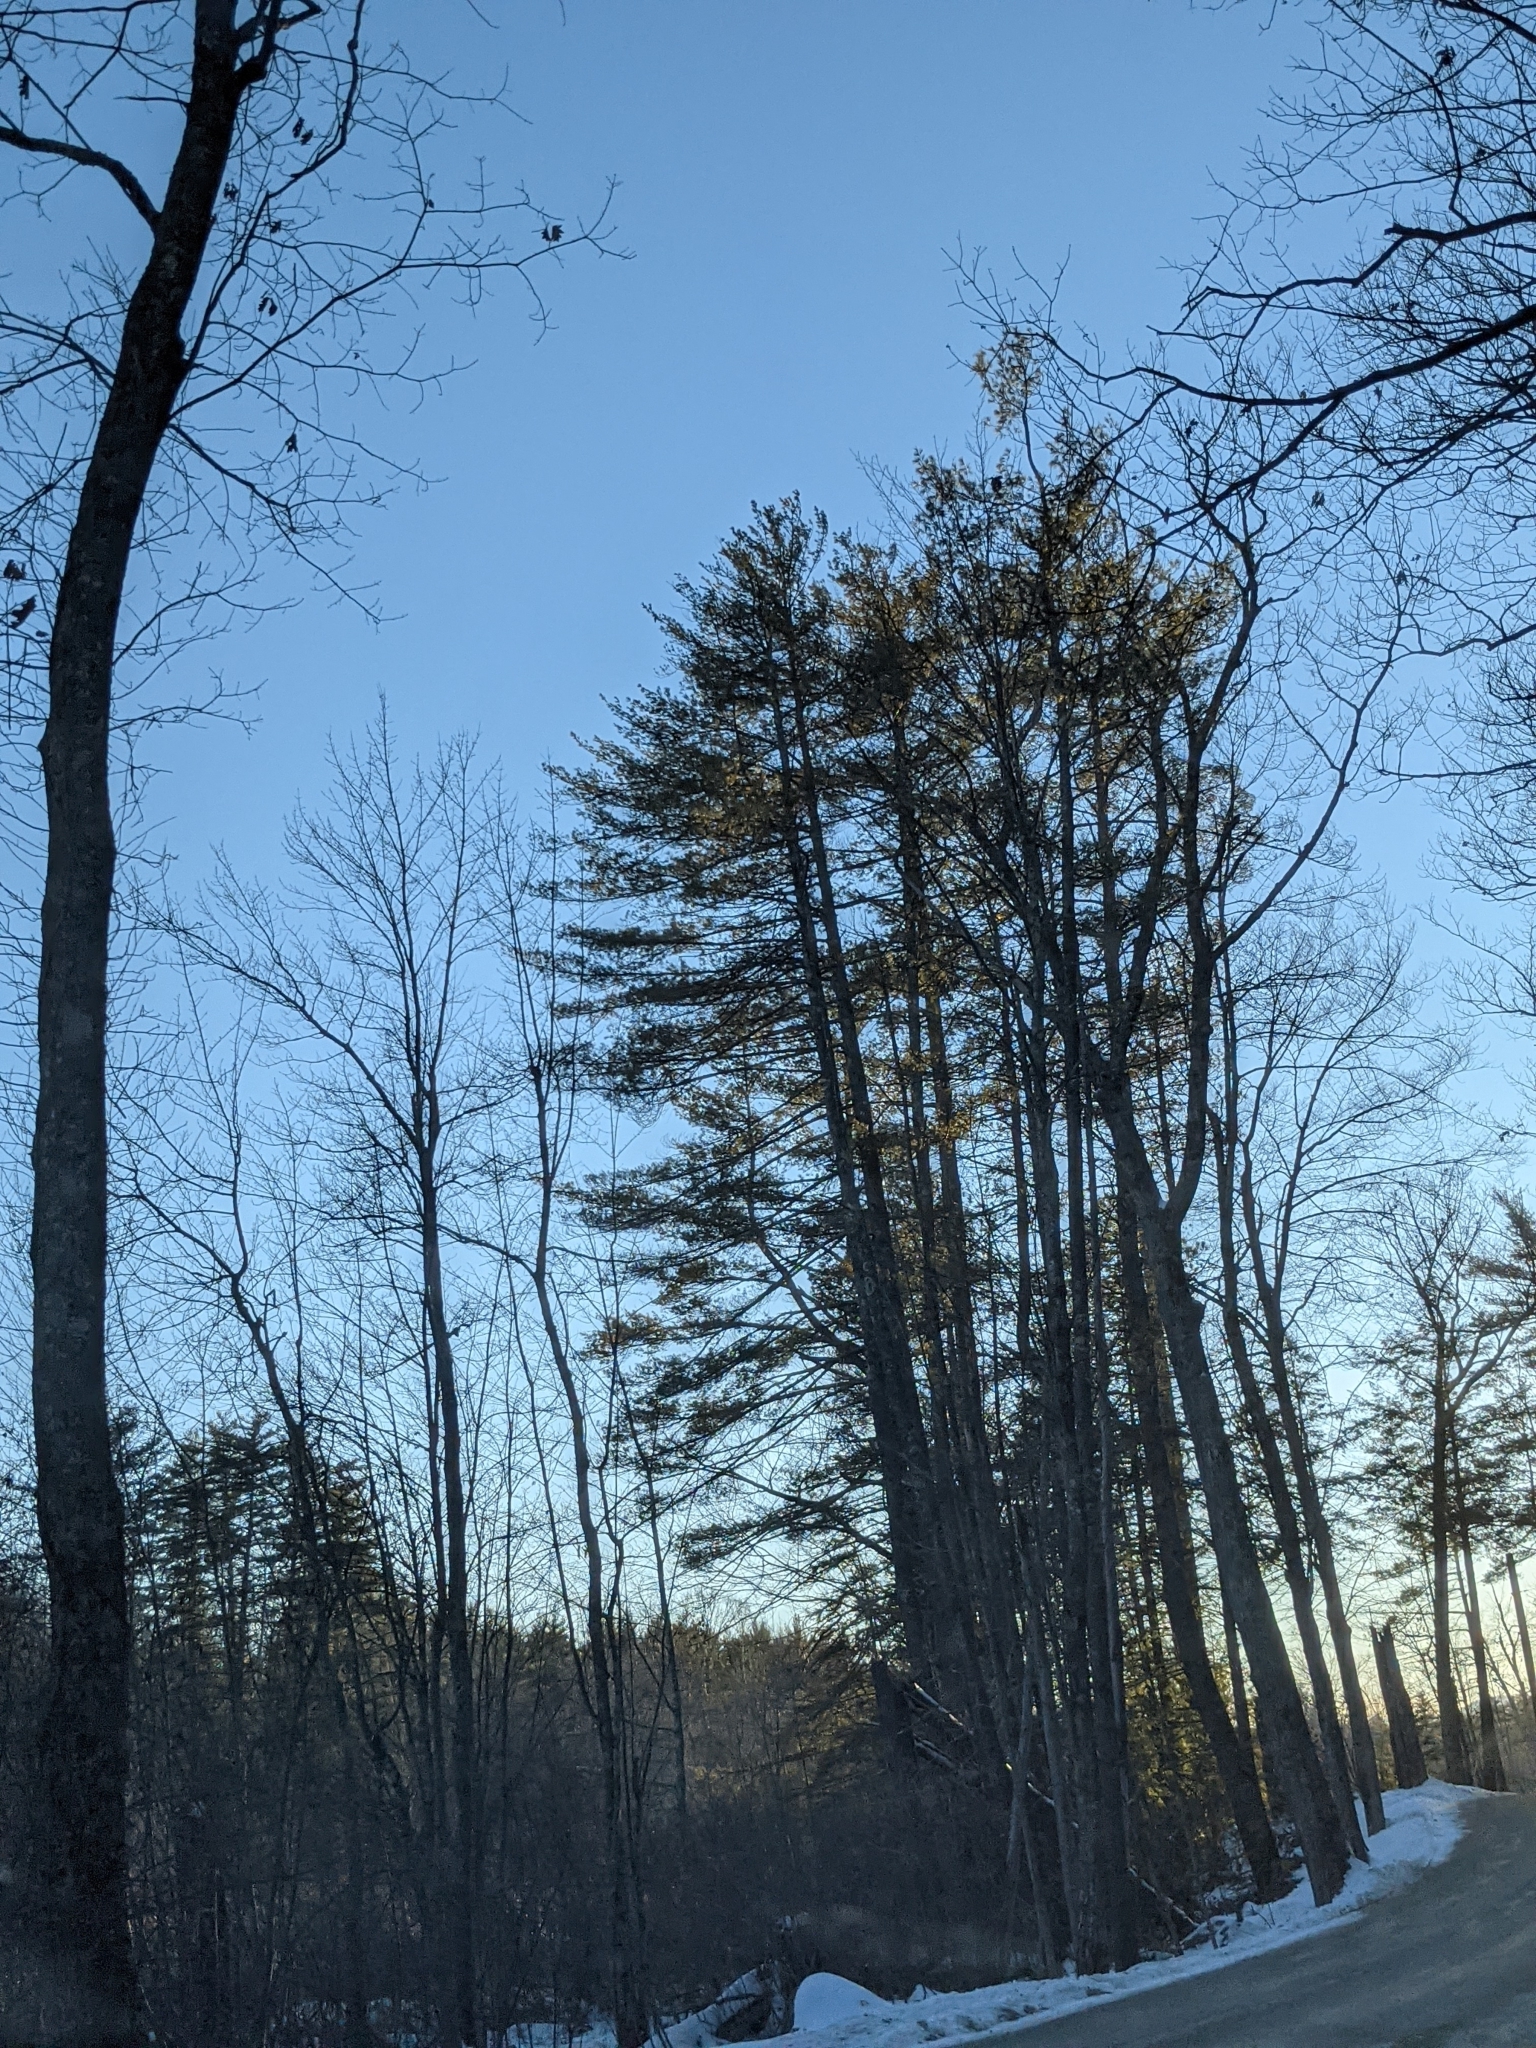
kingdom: Plantae
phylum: Tracheophyta
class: Pinopsida
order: Pinales
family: Pinaceae
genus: Pinus
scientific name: Pinus strobus
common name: Weymouth pine
